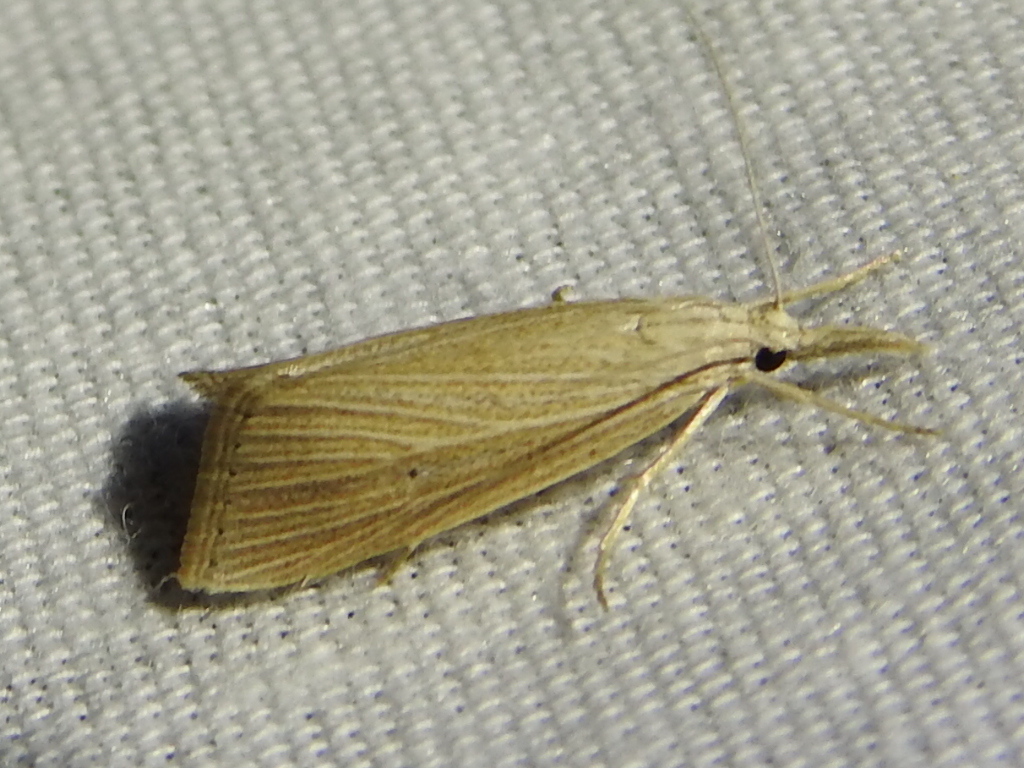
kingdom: Animalia
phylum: Arthropoda
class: Insecta
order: Lepidoptera
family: Crambidae
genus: Diatraea
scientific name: Diatraea lisetta
